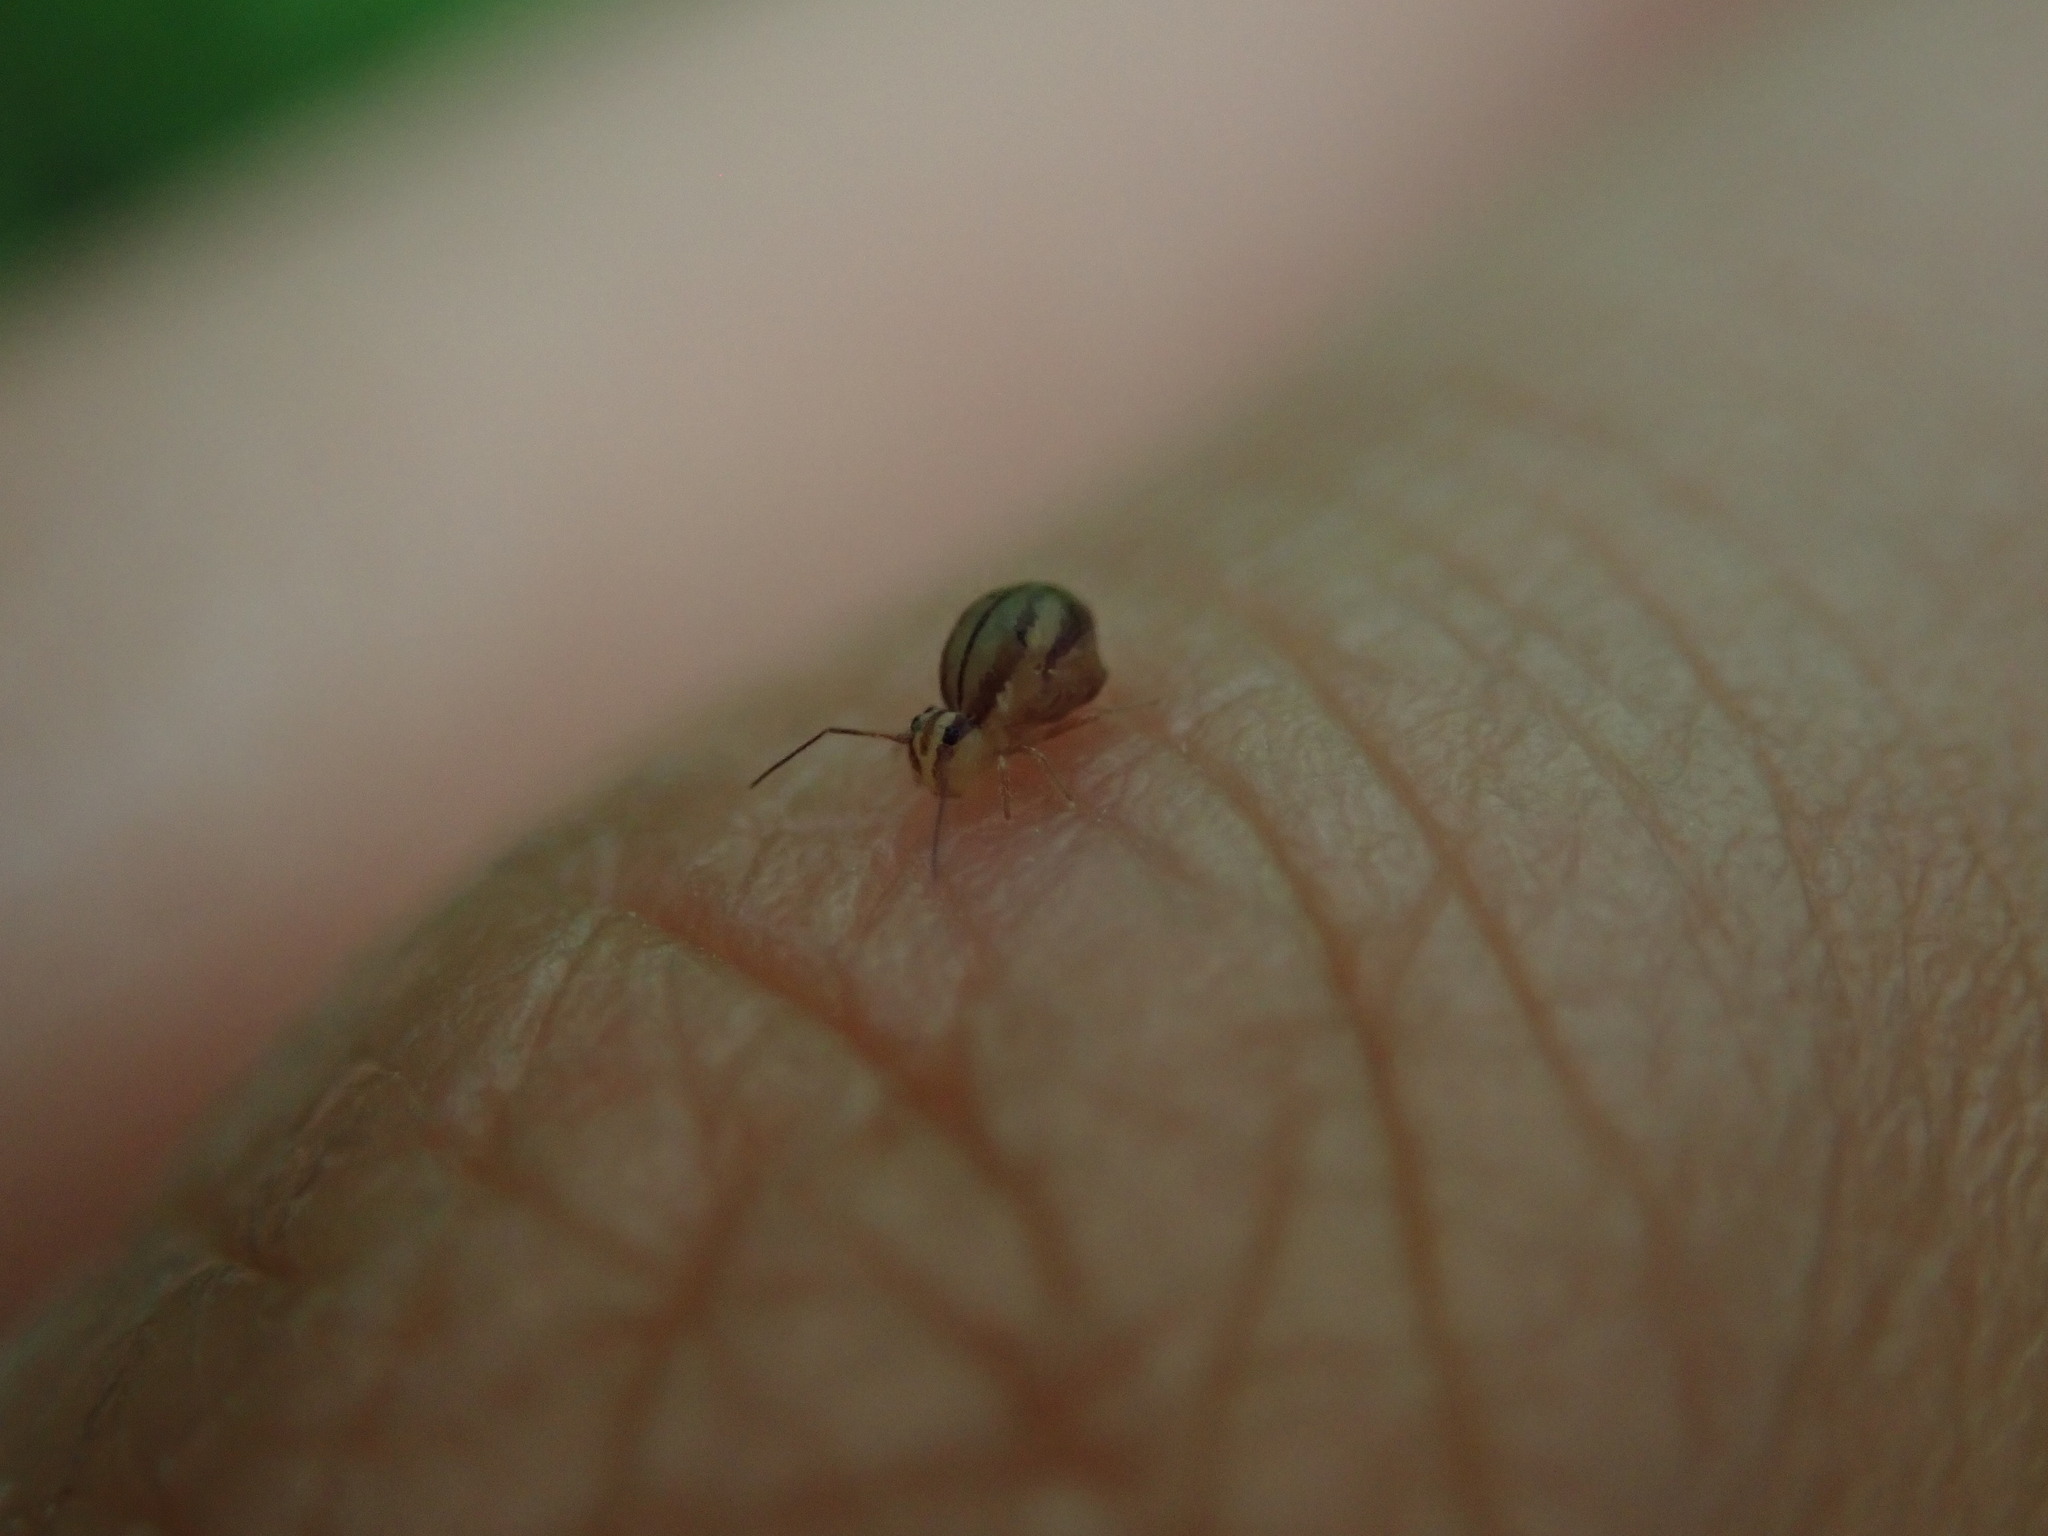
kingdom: Animalia
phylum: Arthropoda
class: Collembola
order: Symphypleona
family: Sminthuridae
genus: Sminthurus
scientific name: Sminthurus mencenbergae
